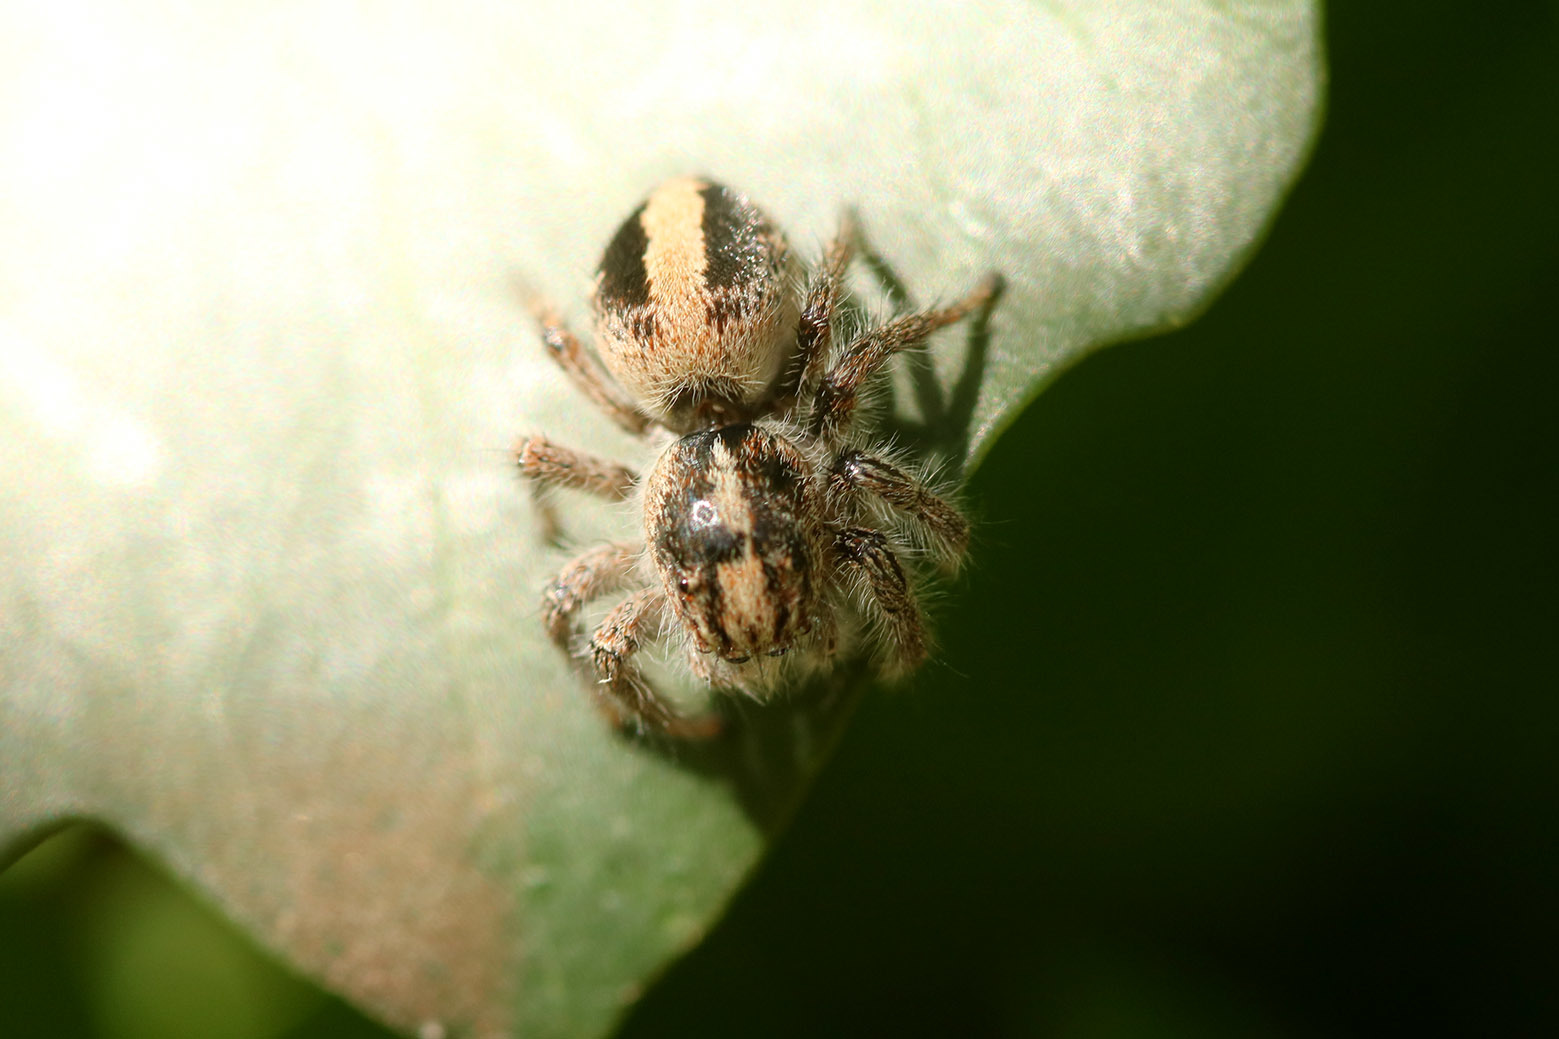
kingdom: Animalia
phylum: Arthropoda
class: Arachnida
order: Araneae
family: Salticidae
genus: Megafreya
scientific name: Megafreya sutrix
